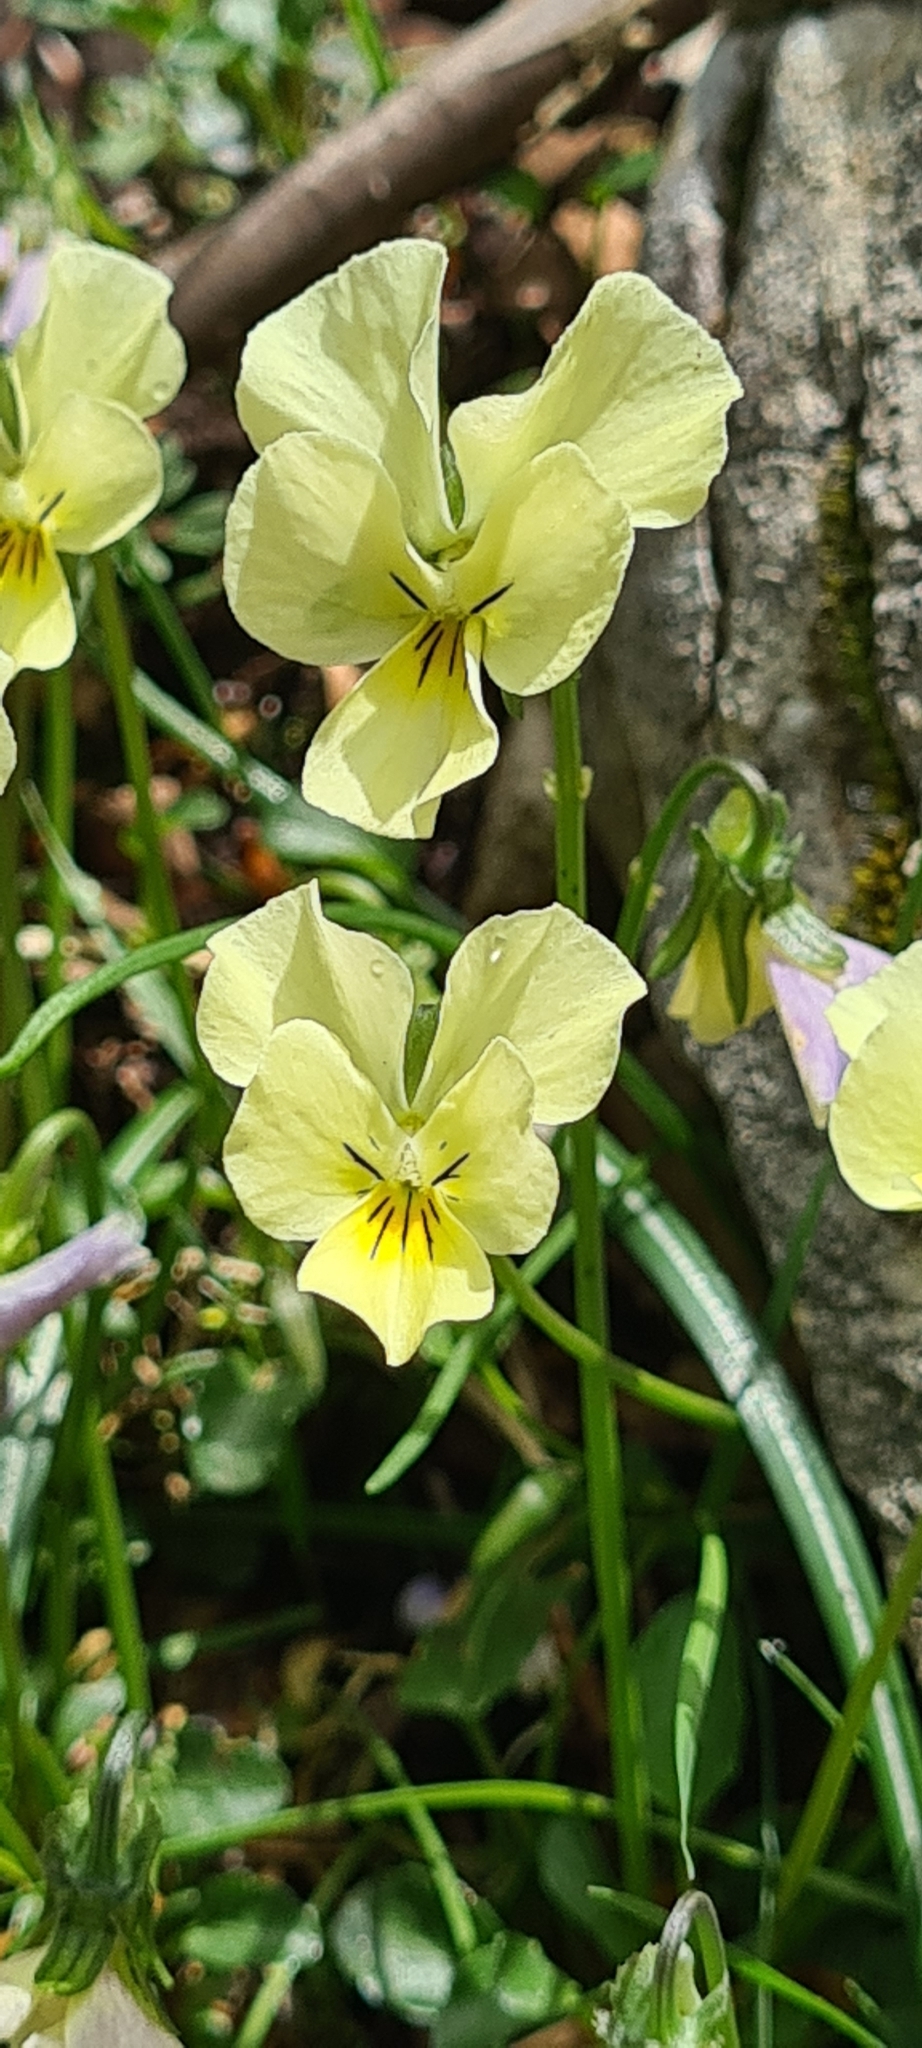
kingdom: Plantae
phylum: Tracheophyta
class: Magnoliopsida
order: Malpighiales
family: Violaceae
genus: Viola
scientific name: Viola eugeniae
